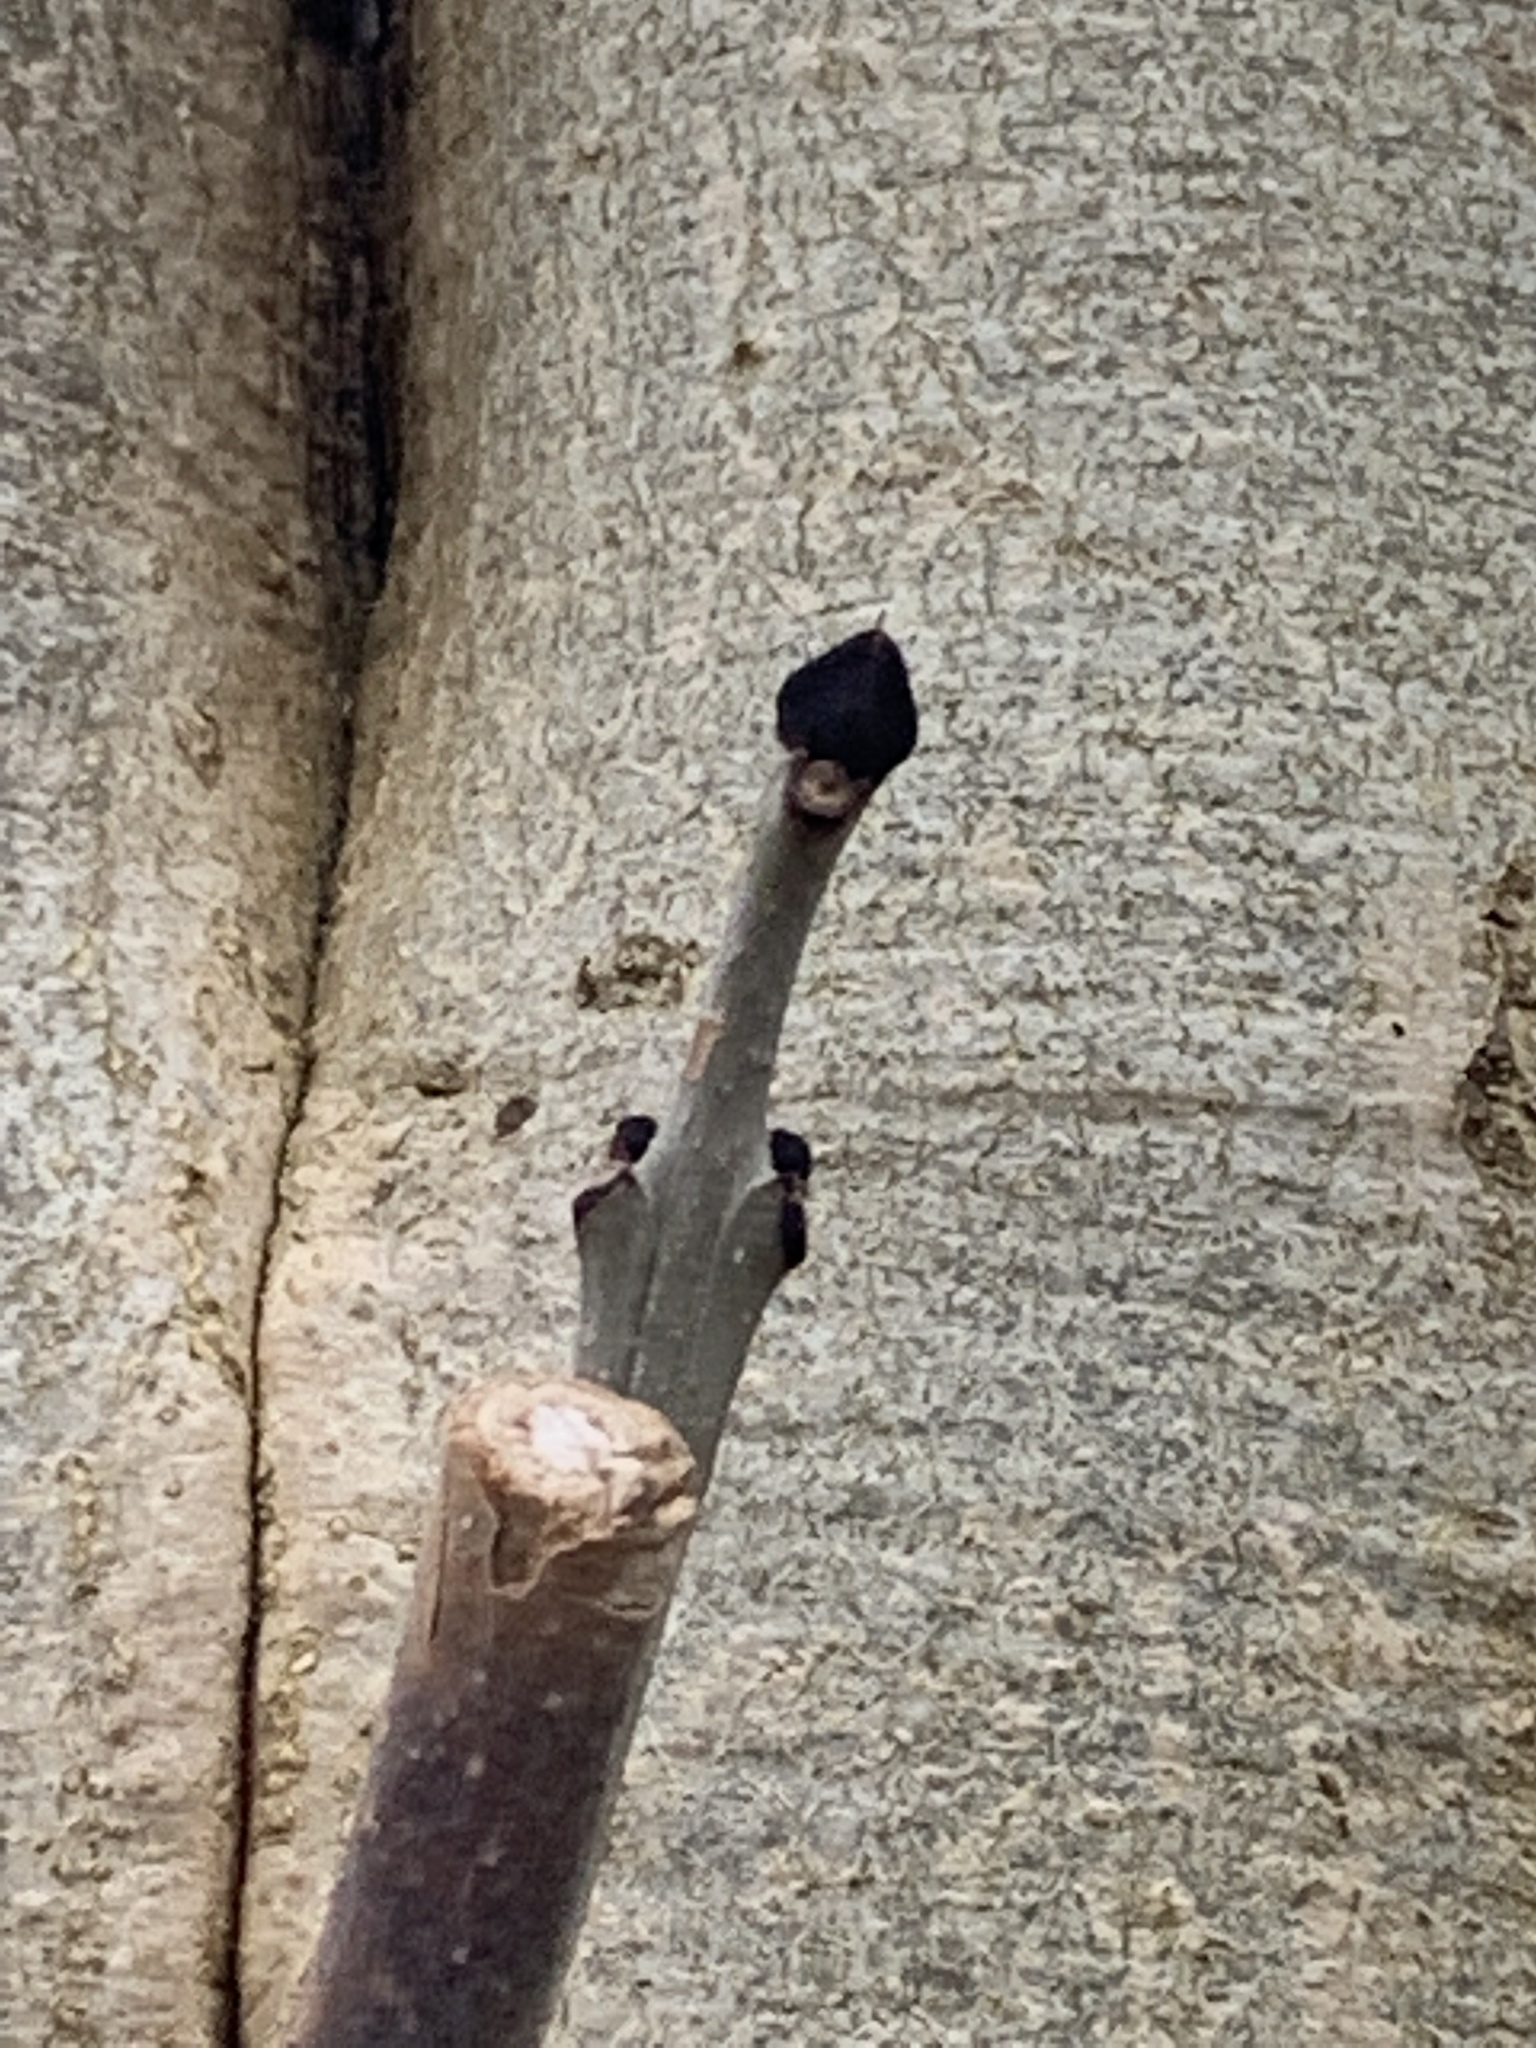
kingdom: Plantae
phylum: Tracheophyta
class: Magnoliopsida
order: Lamiales
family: Oleaceae
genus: Fraxinus
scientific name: Fraxinus excelsior
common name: European ash
